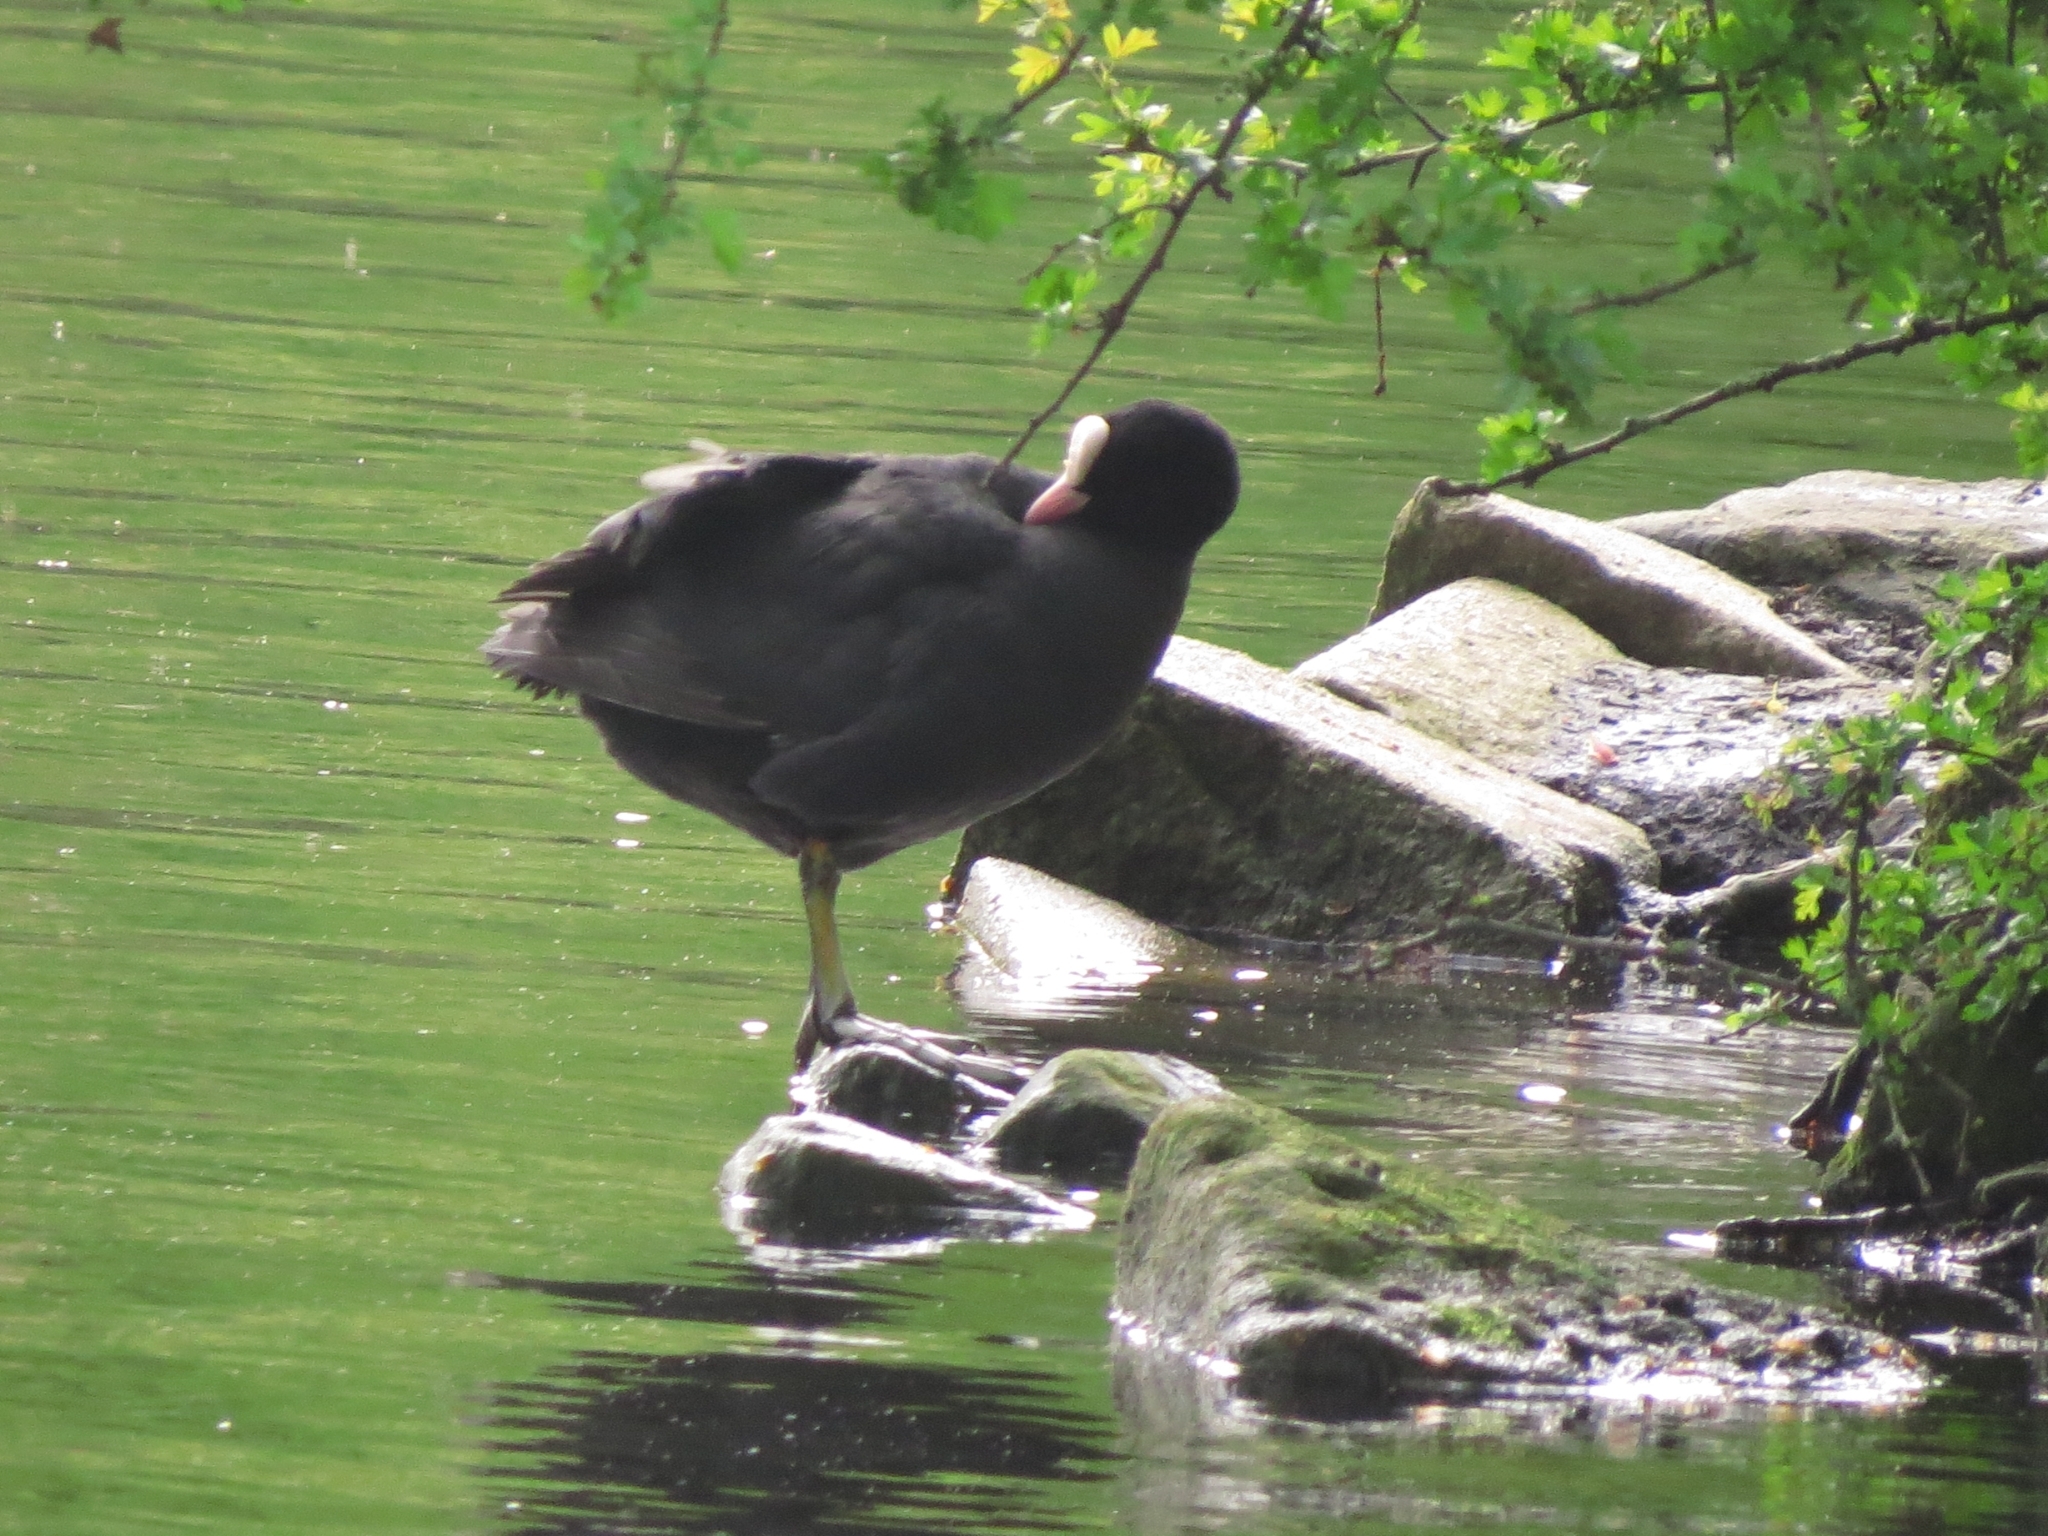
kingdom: Animalia
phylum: Chordata
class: Aves
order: Gruiformes
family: Rallidae
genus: Fulica
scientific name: Fulica atra
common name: Eurasian coot
